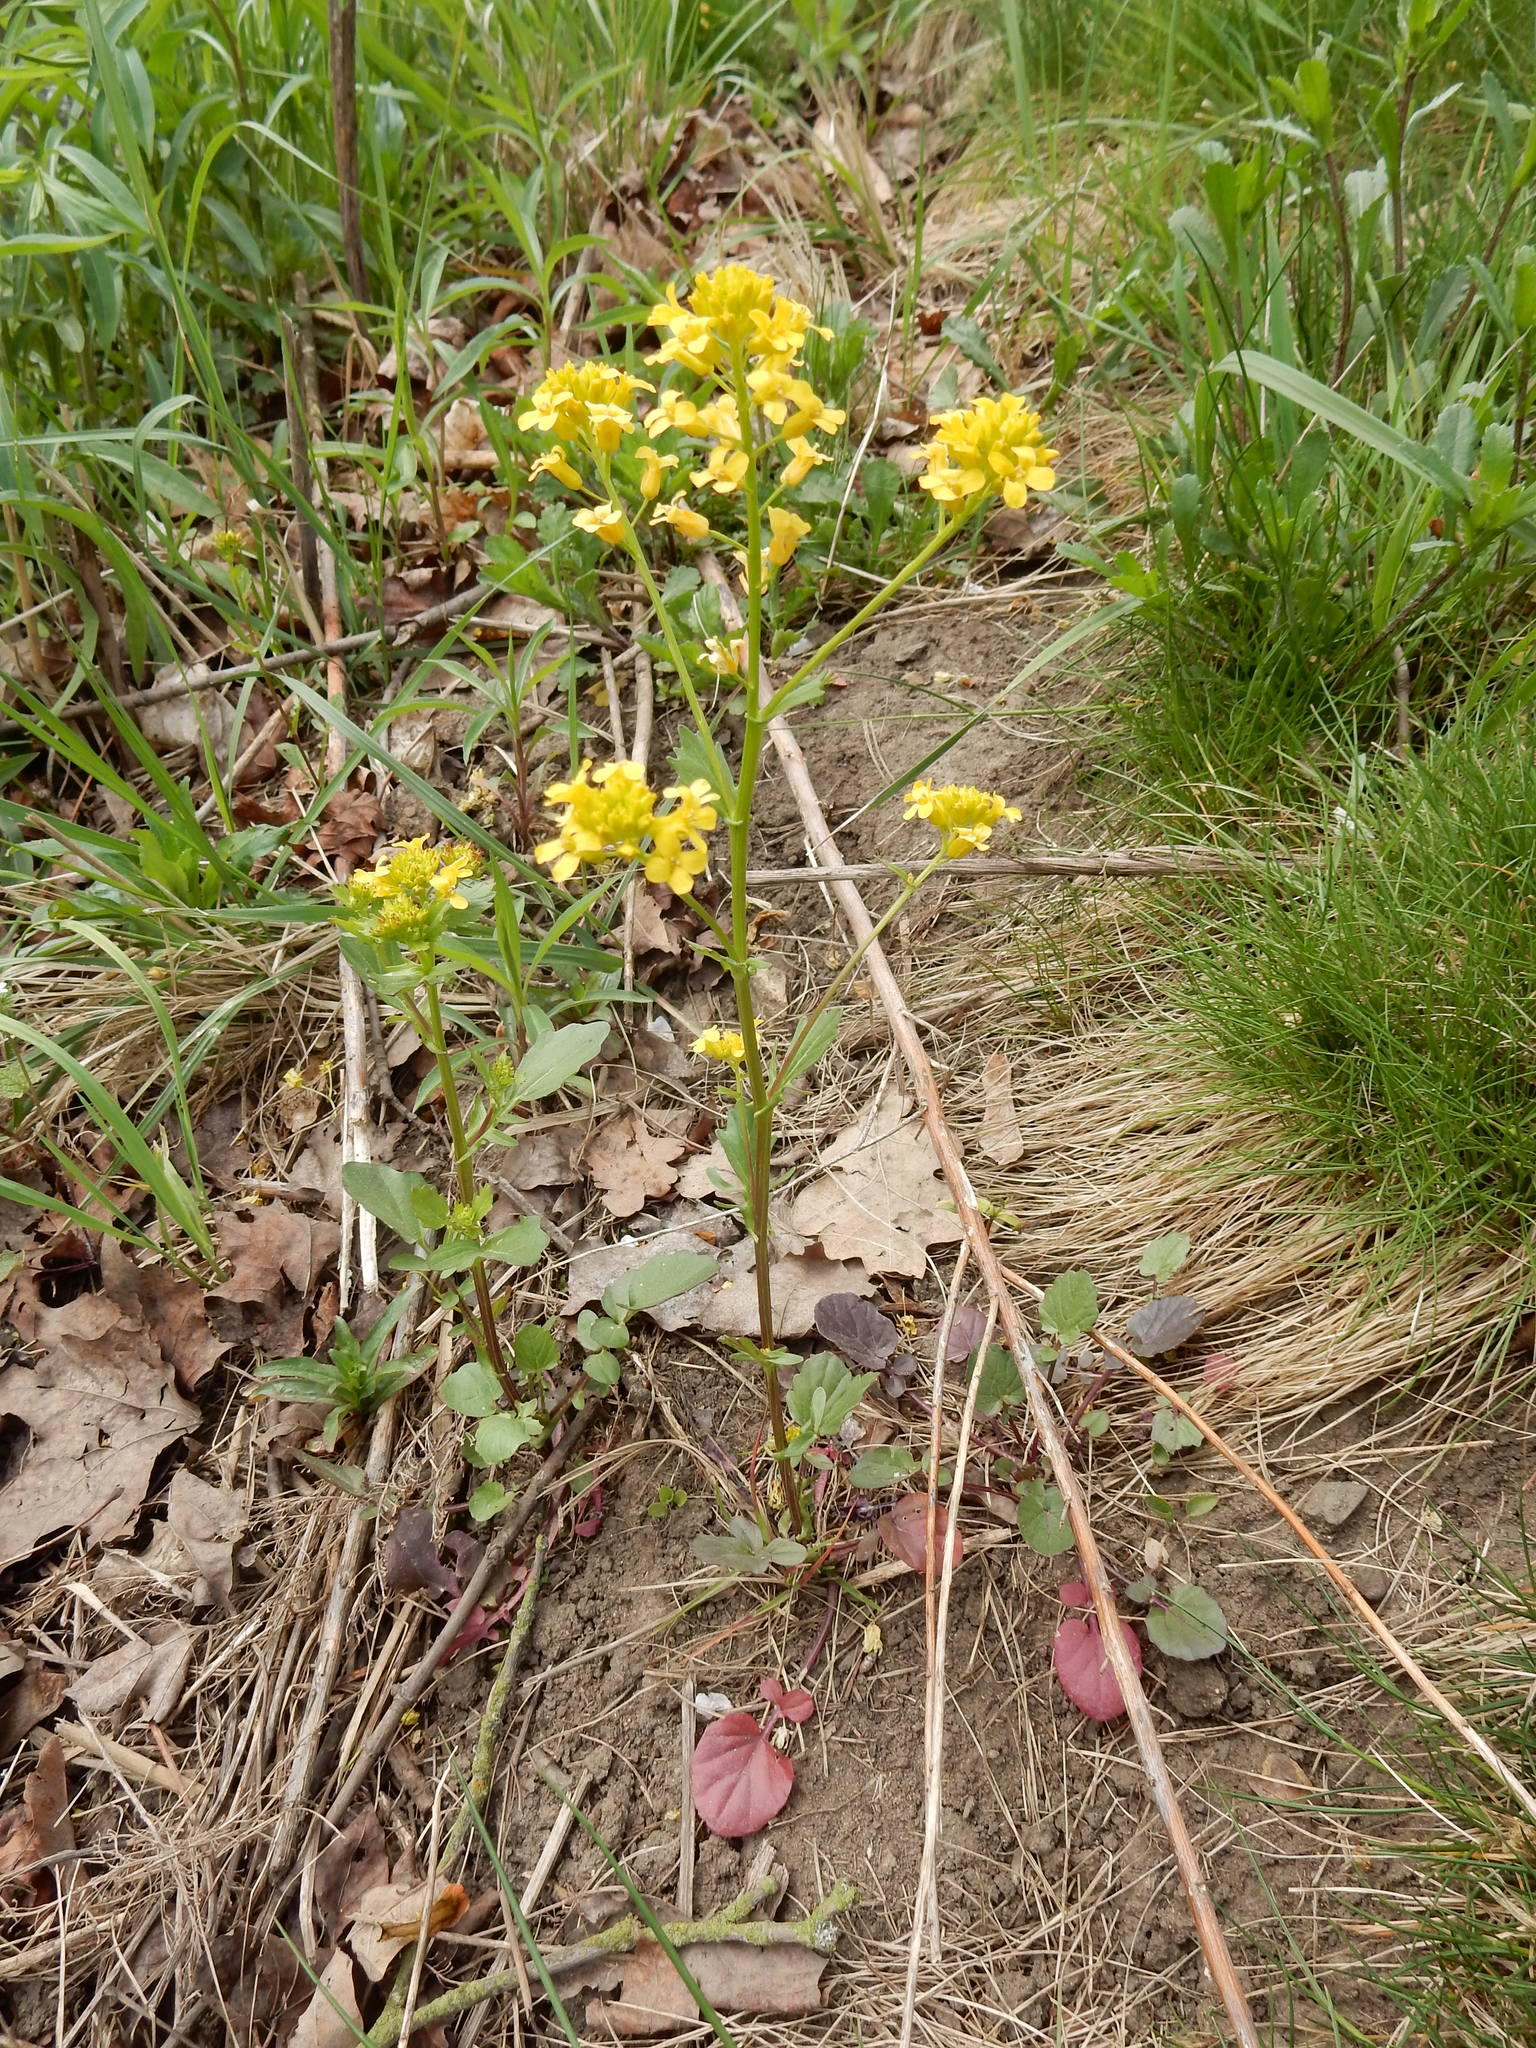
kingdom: Plantae
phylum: Tracheophyta
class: Magnoliopsida
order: Brassicales
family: Brassicaceae
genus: Barbarea
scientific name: Barbarea vulgaris
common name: Cressy-greens
